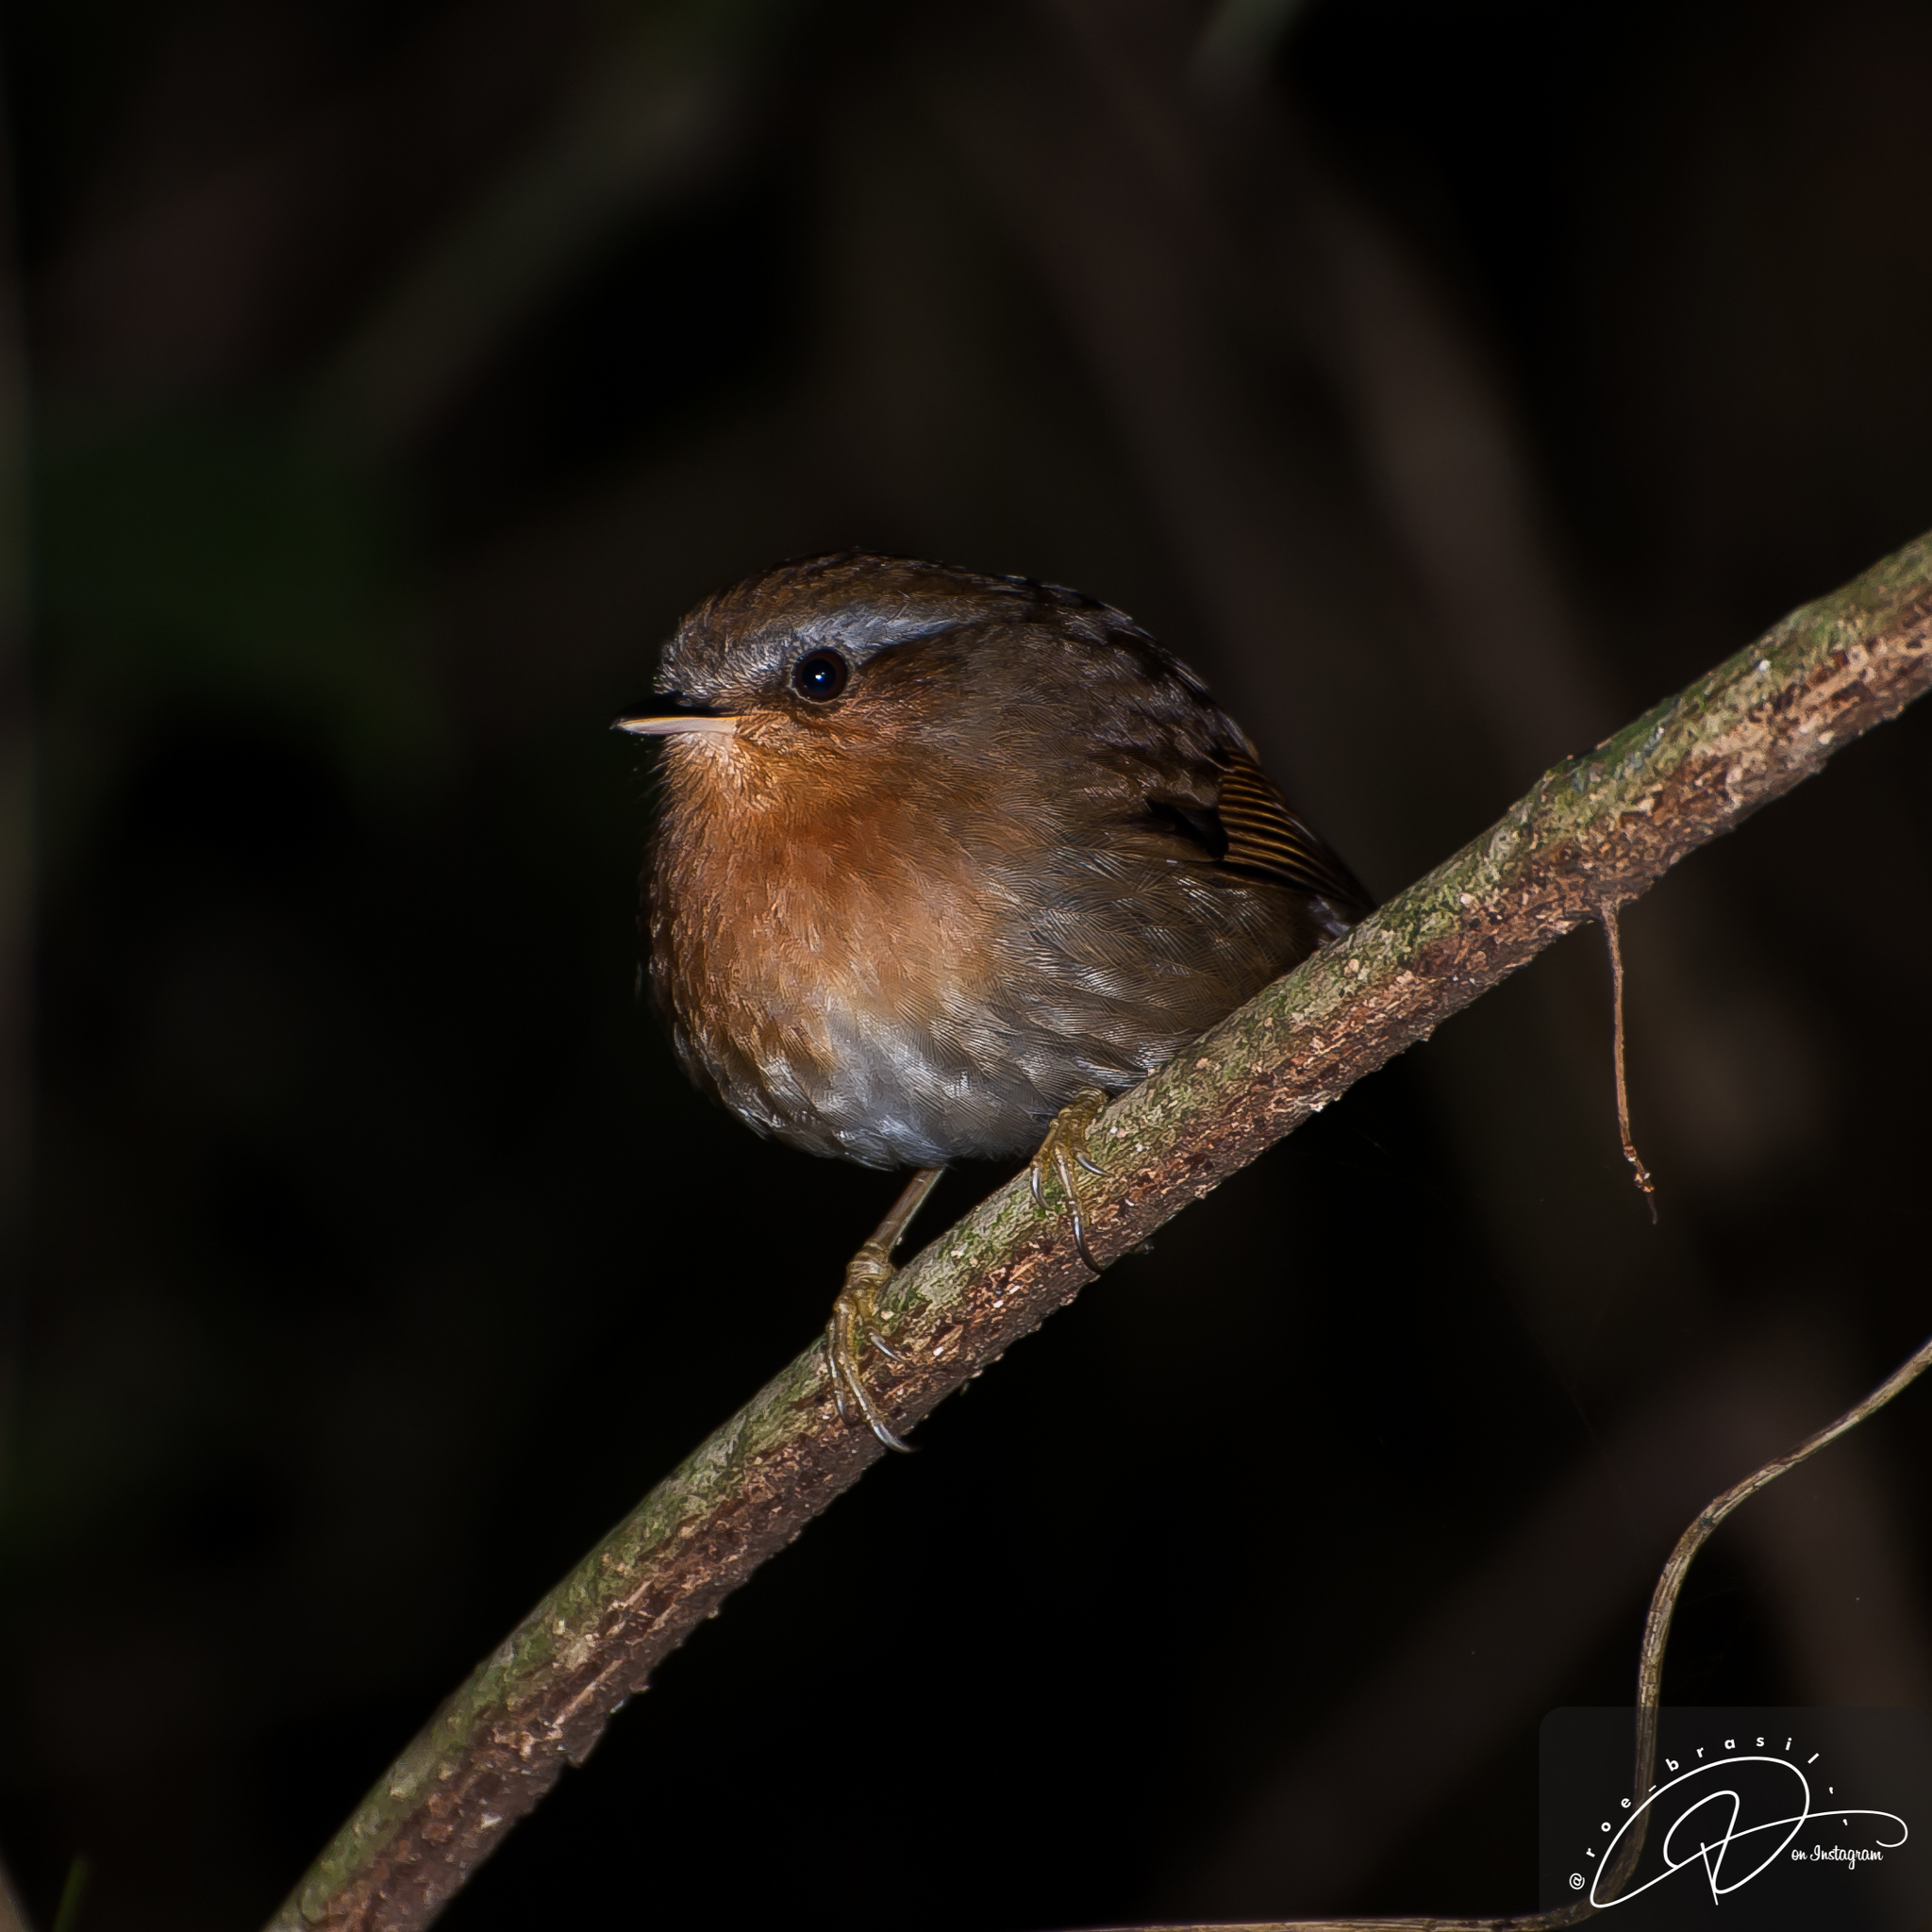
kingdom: Animalia
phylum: Chordata
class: Aves
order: Passeriformes
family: Conopophagidae
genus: Conopophaga
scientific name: Conopophaga lineata
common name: Rufous gnateater
